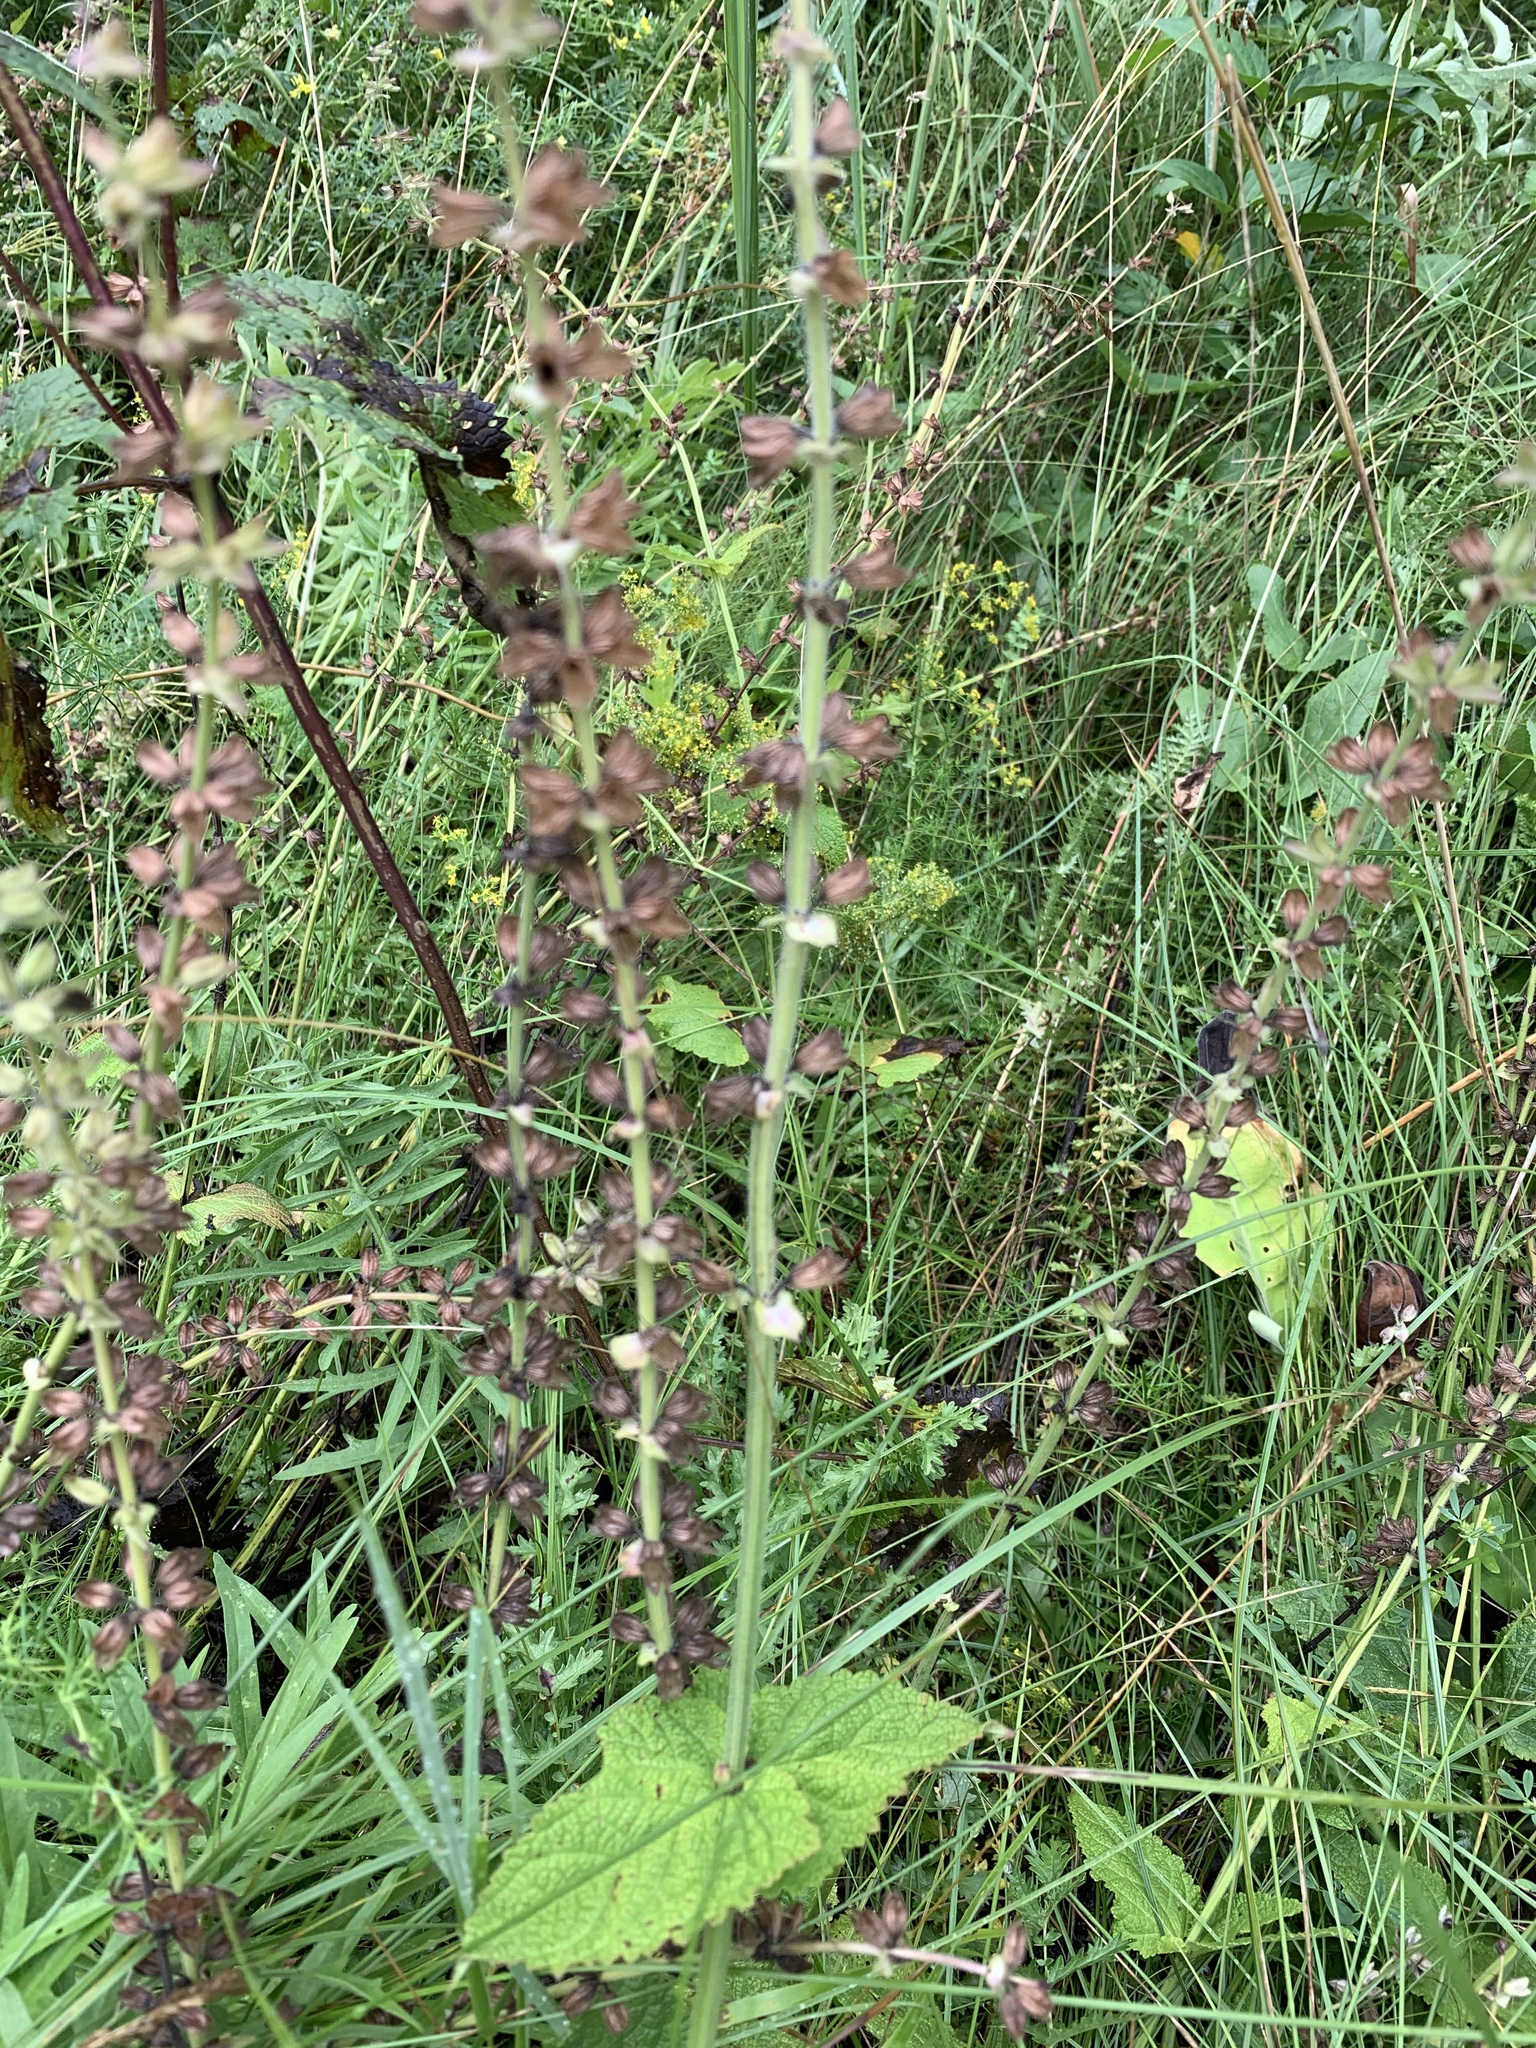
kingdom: Plantae
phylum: Tracheophyta
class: Magnoliopsida
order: Lamiales
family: Lamiaceae
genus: Salvia
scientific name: Salvia dumetorum
